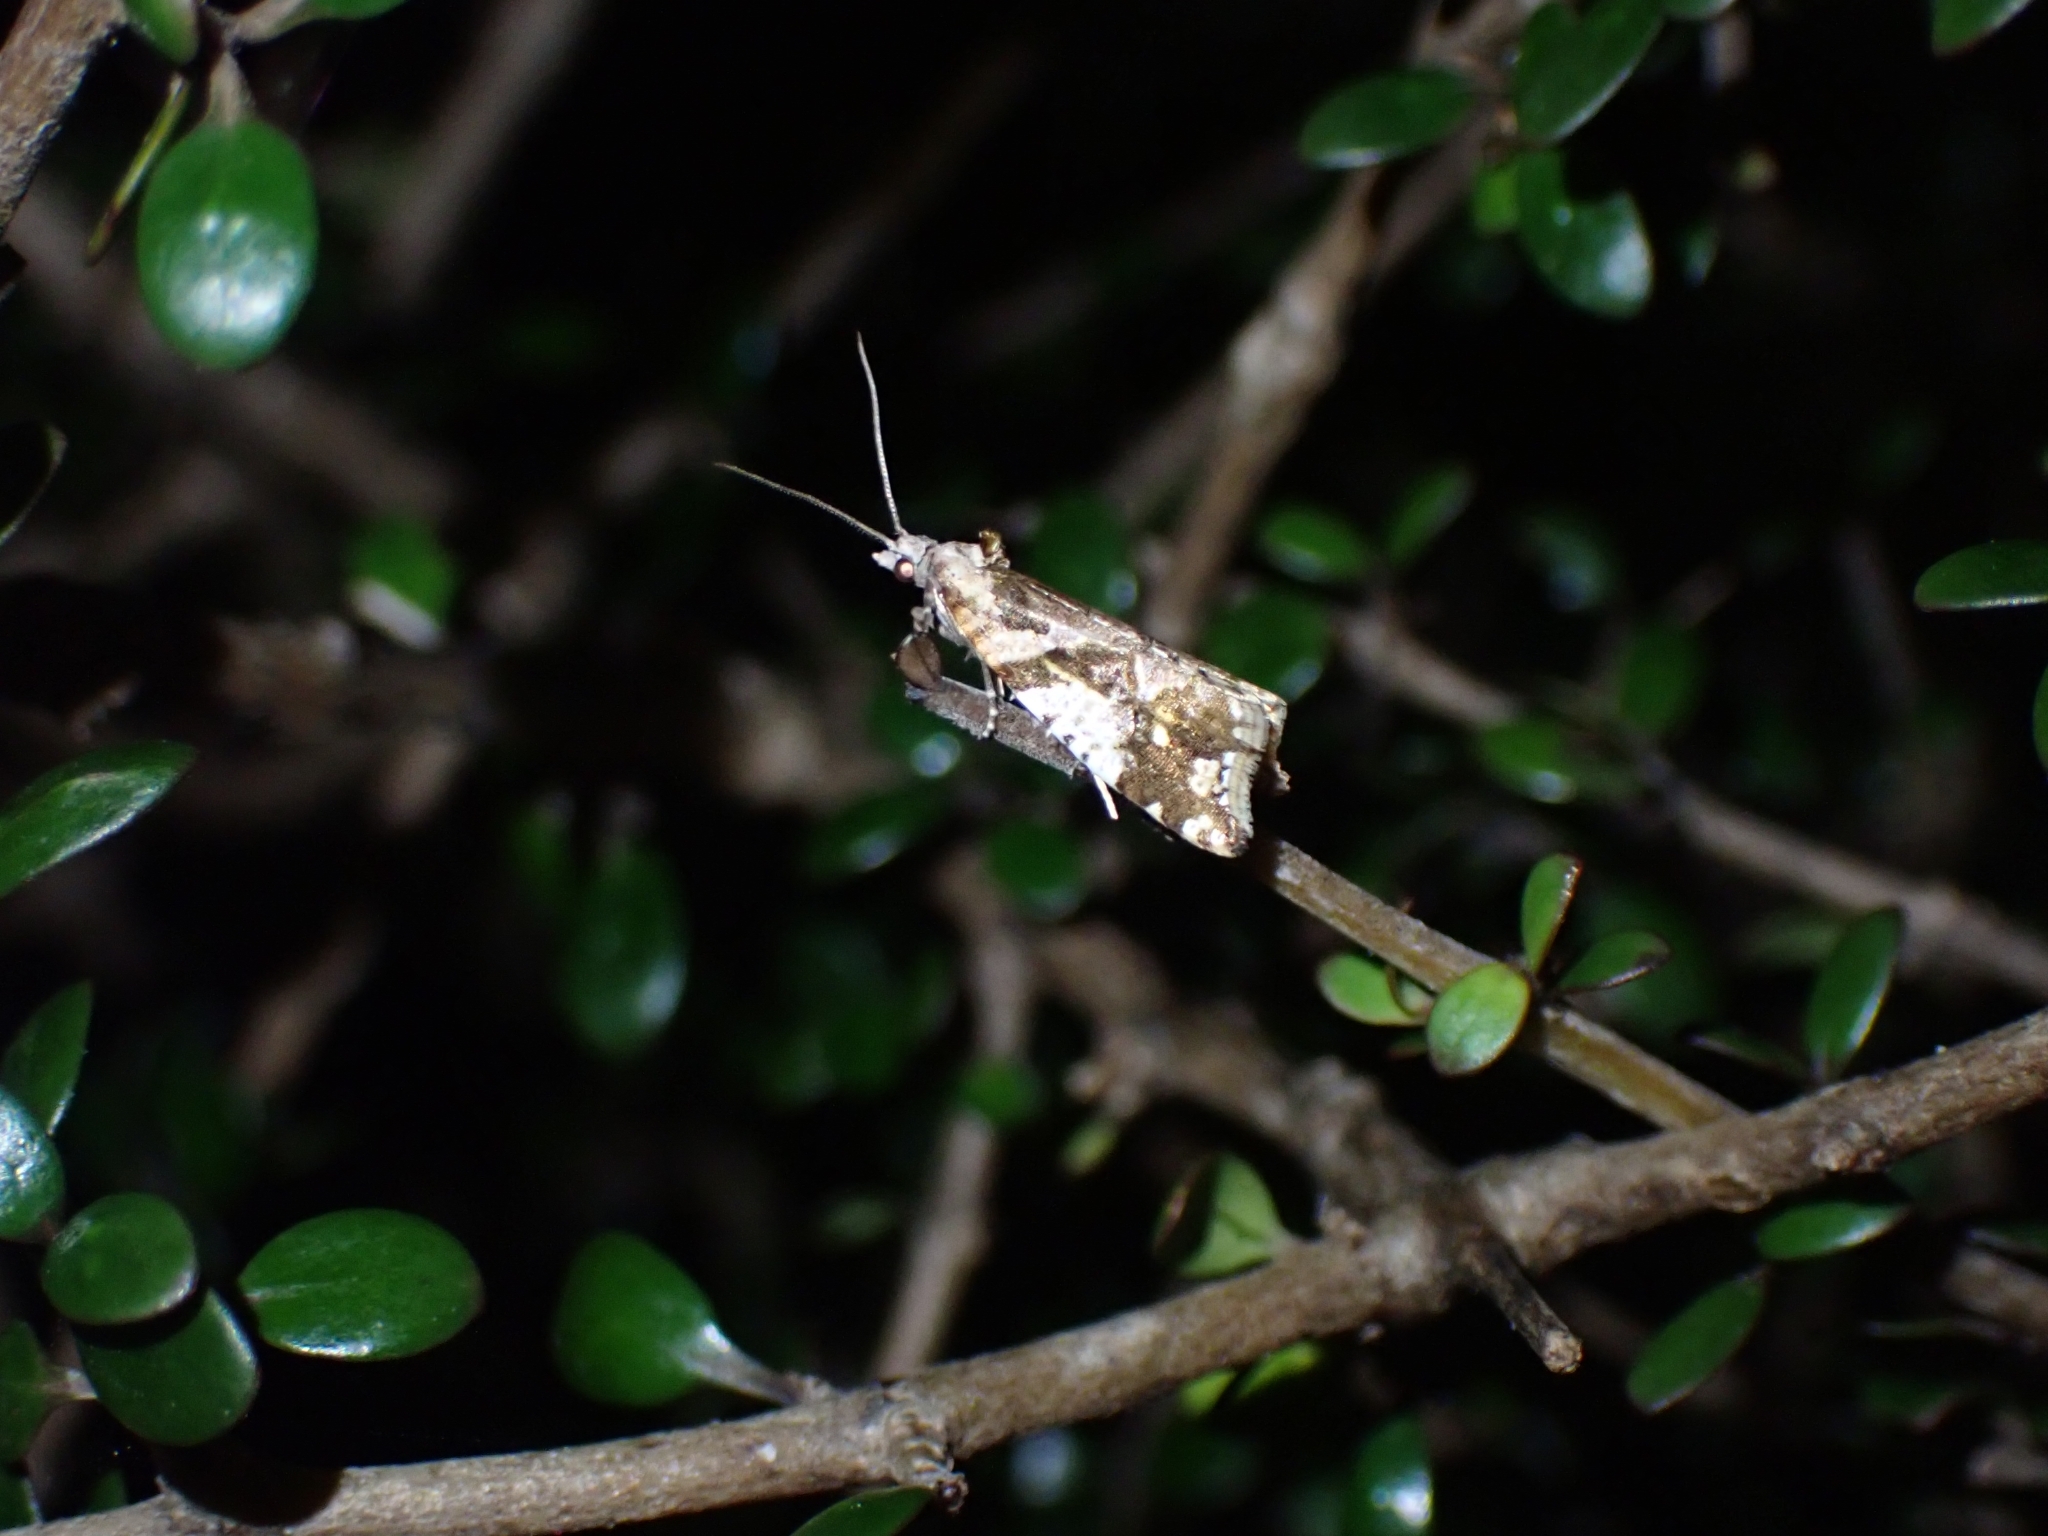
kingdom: Animalia
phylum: Arthropoda
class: Insecta
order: Lepidoptera
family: Tortricidae
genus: Pyrgotis
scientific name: Pyrgotis plagiatana
